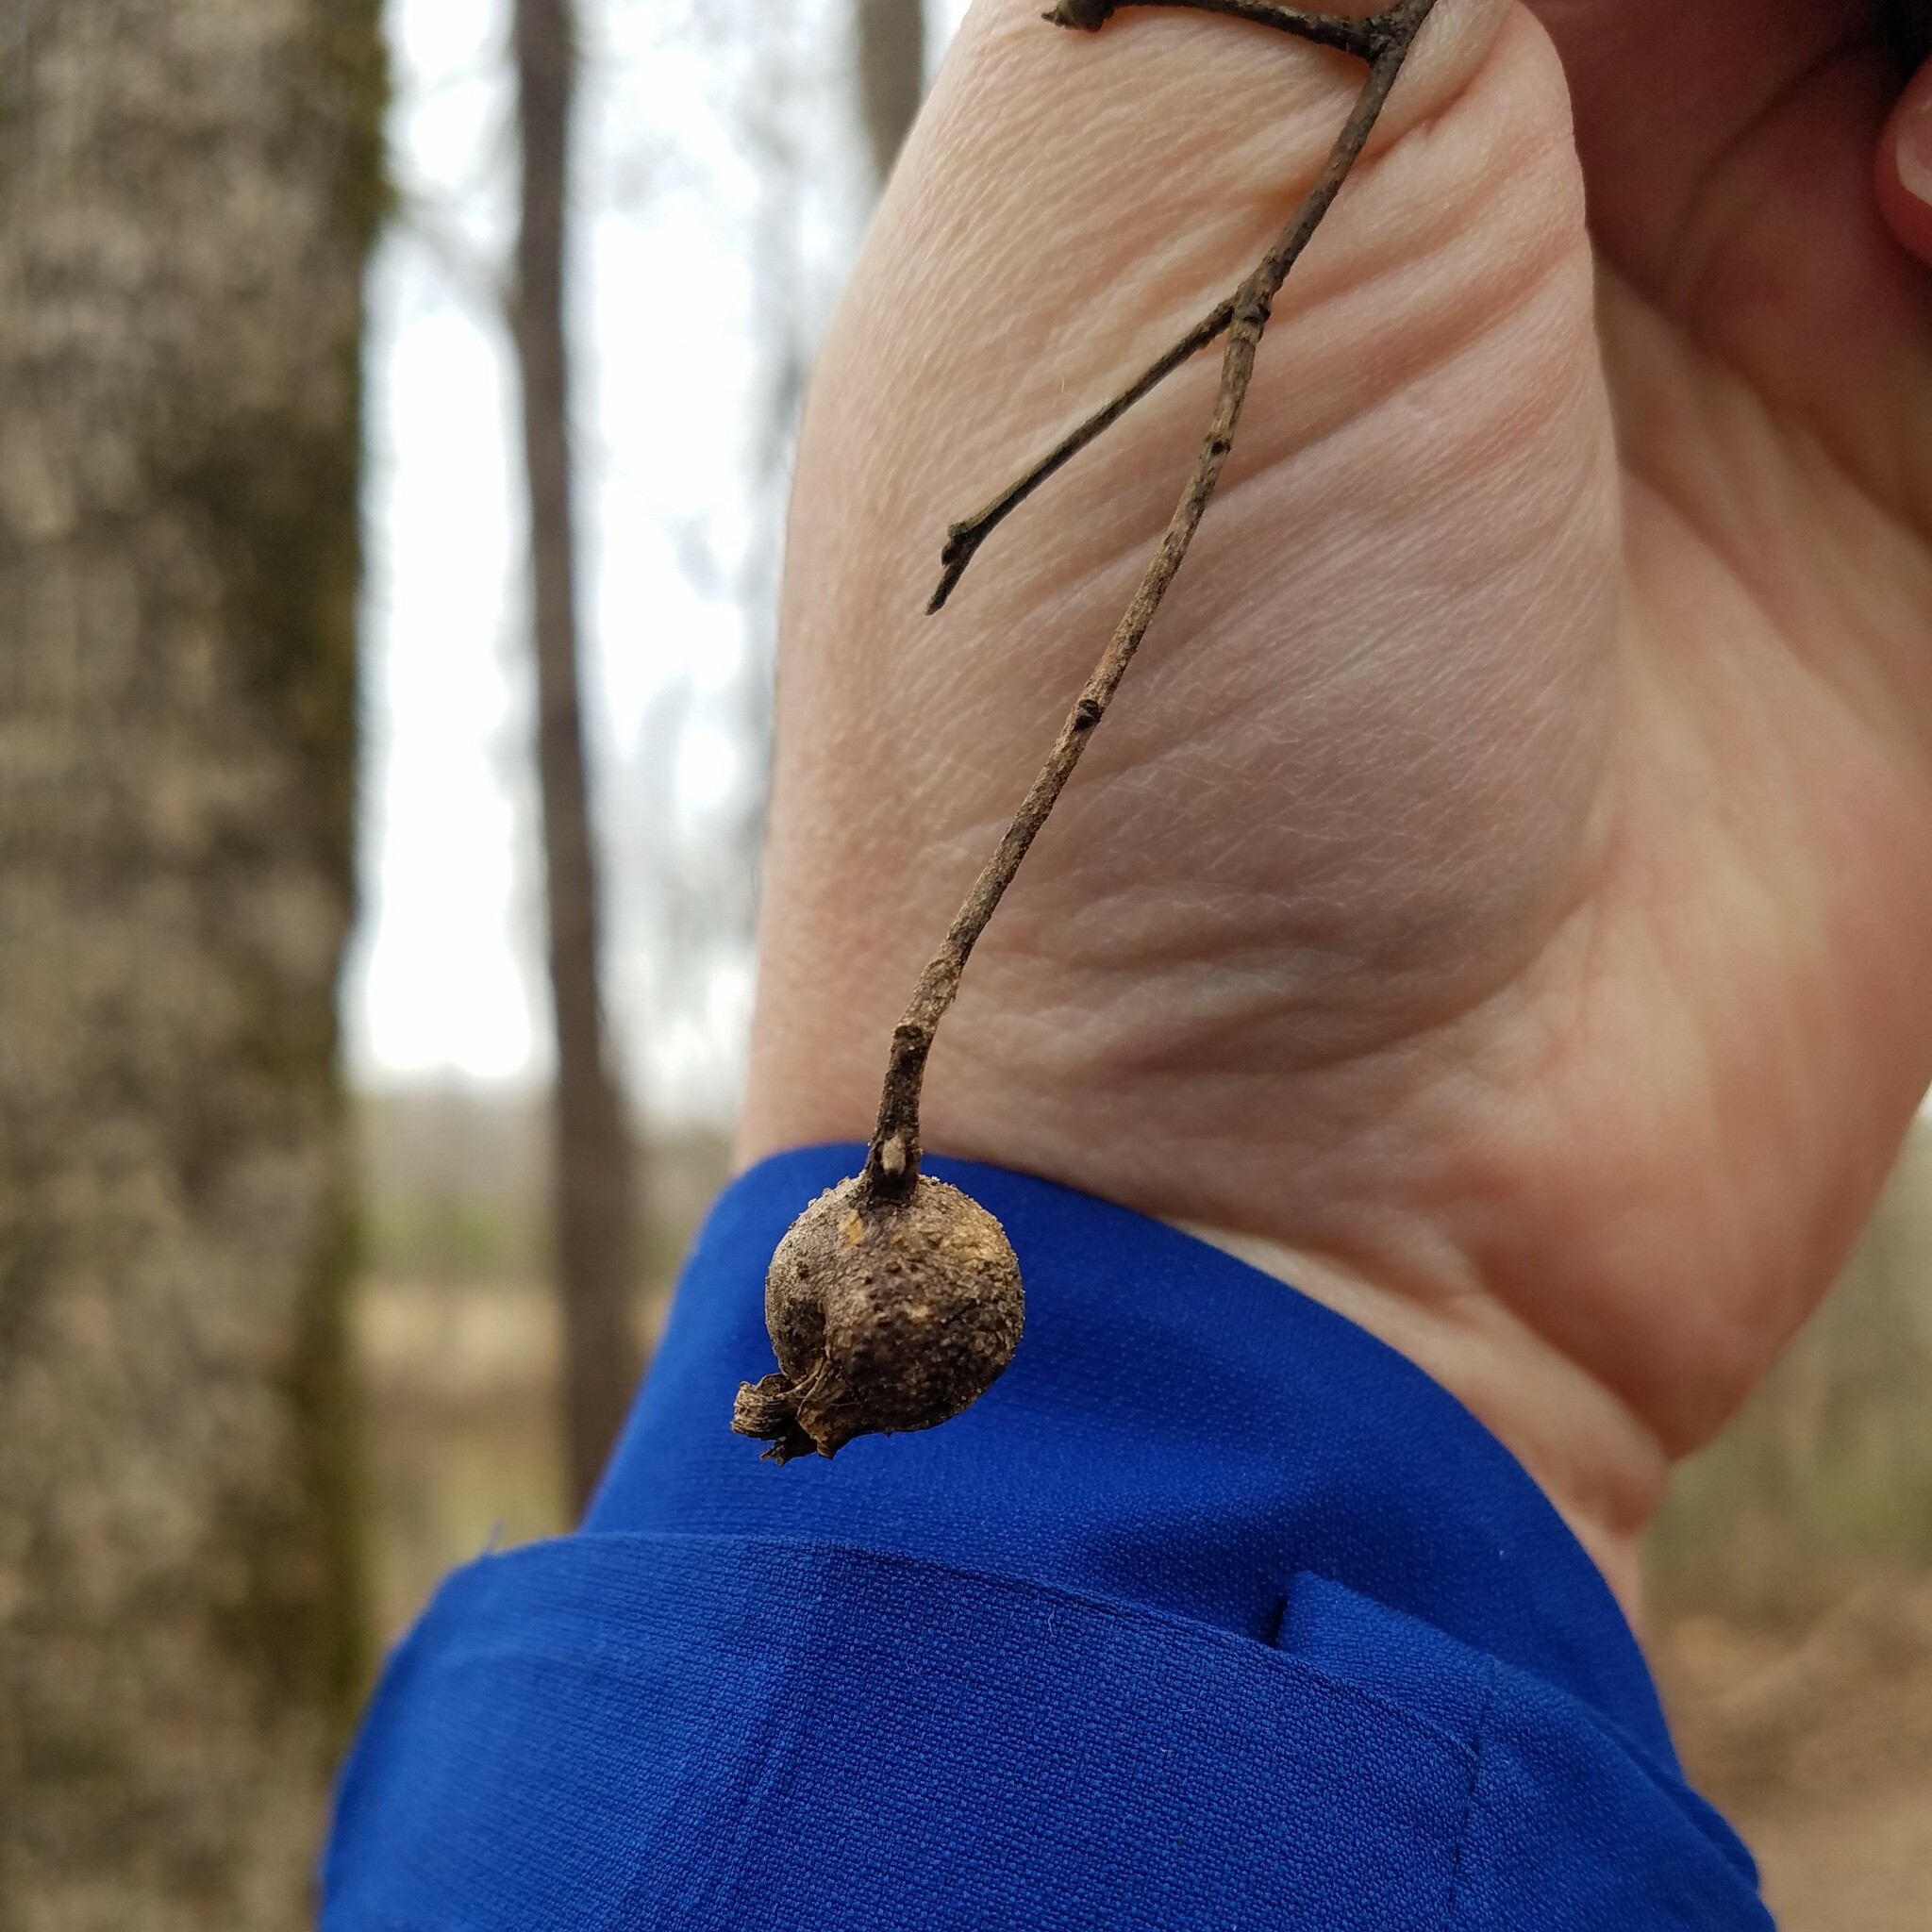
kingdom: Plantae
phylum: Tracheophyta
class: Magnoliopsida
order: Rosales
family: Cannabaceae
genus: Celtis
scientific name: Celtis laevigata
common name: Sugarberry
